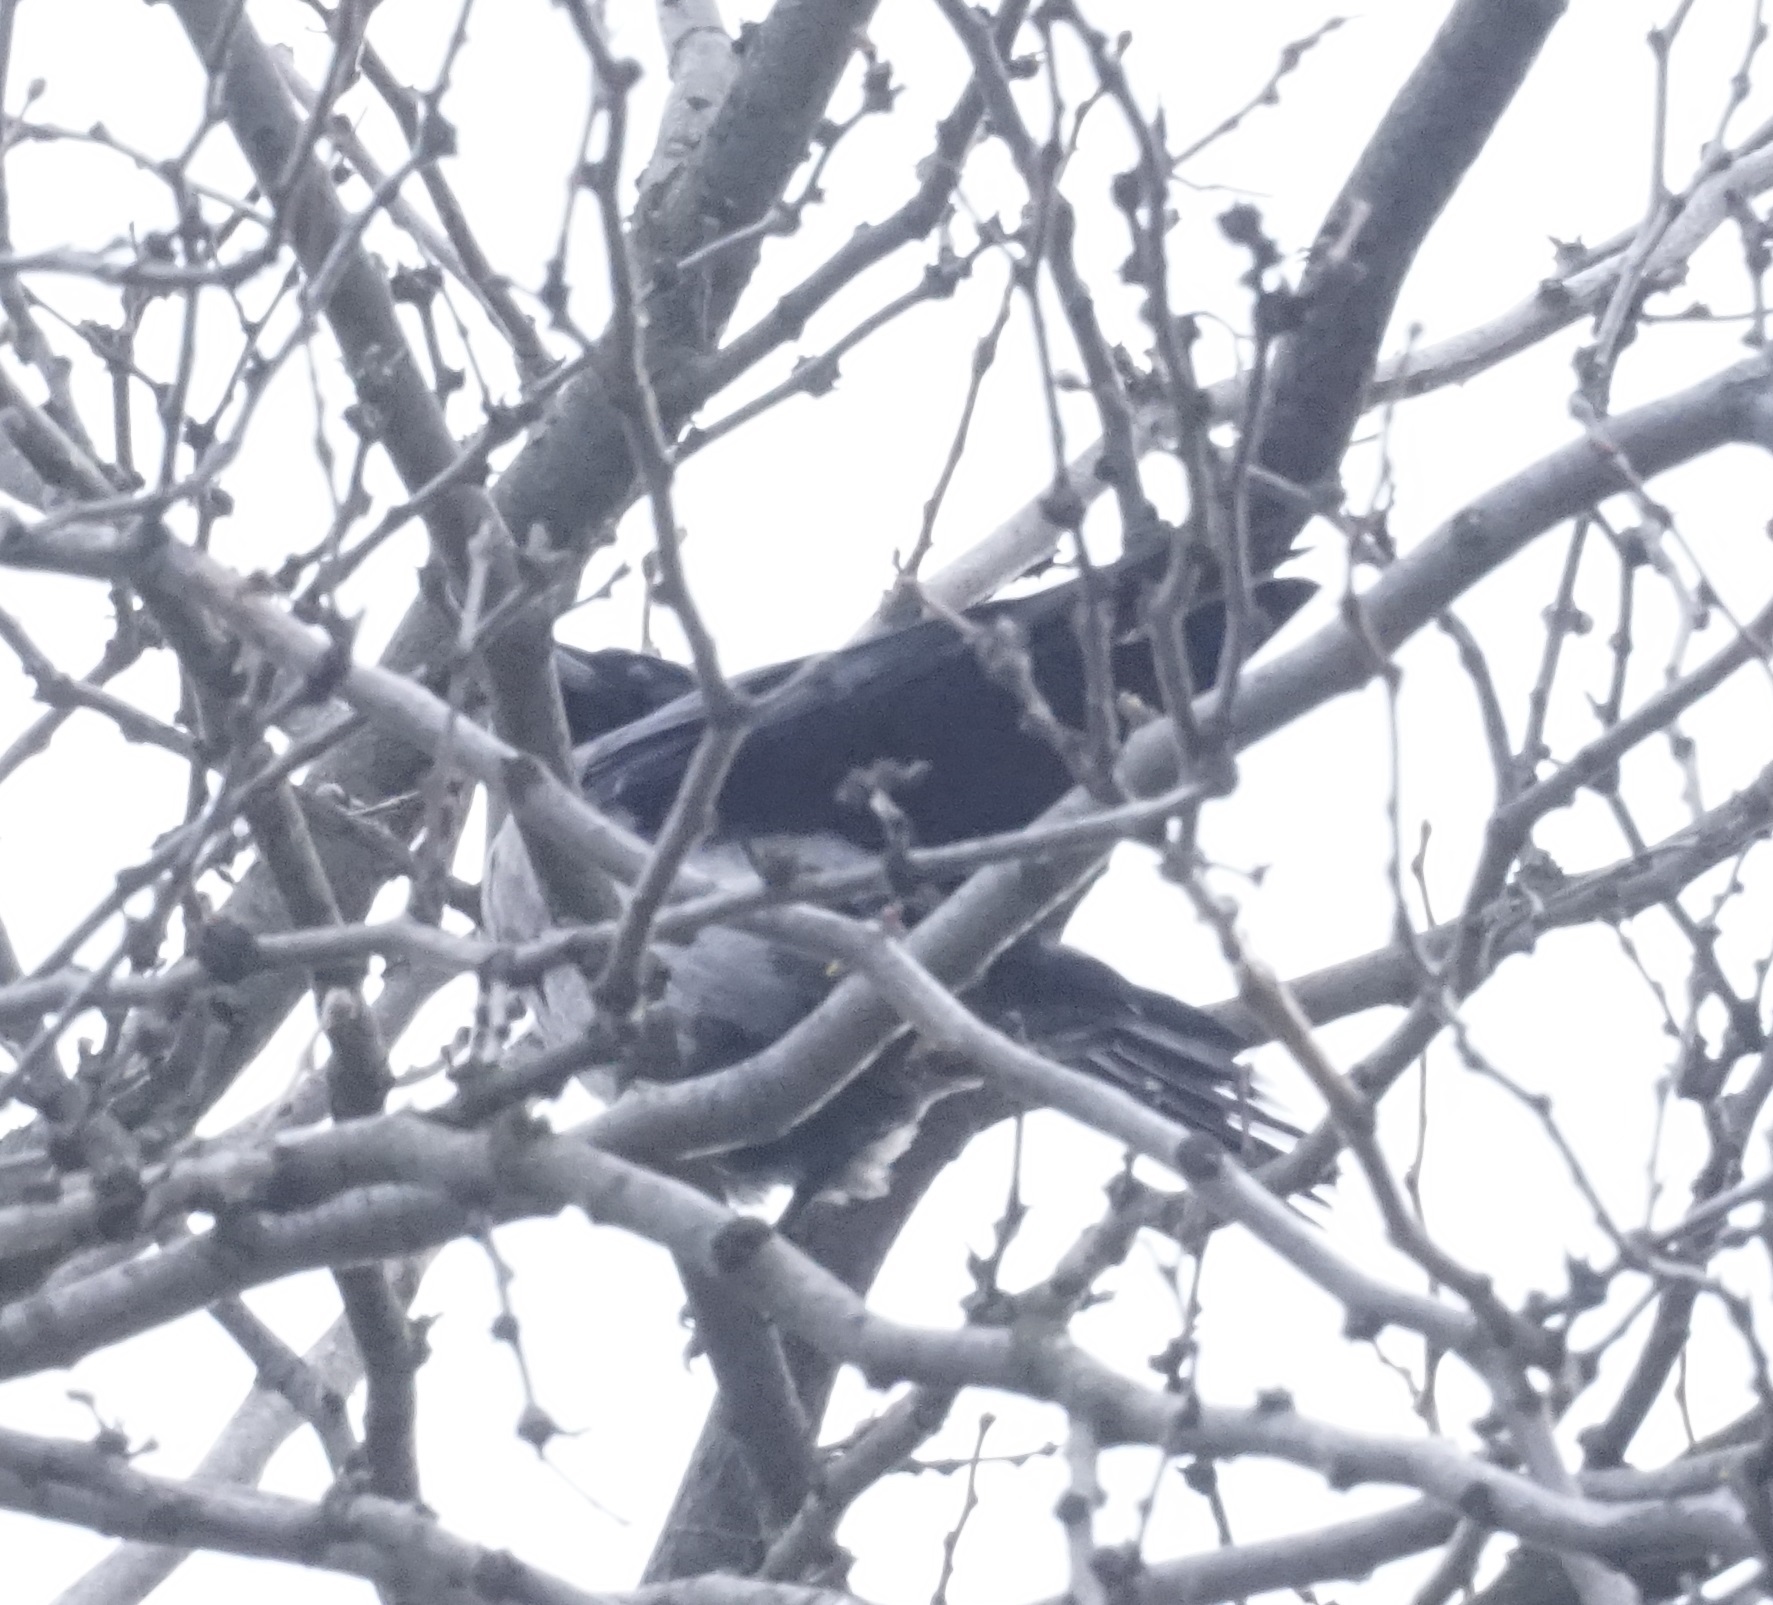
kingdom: Animalia
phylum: Chordata
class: Aves
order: Passeriformes
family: Corvidae
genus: Corvus
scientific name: Corvus cornix
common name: Hooded crow
